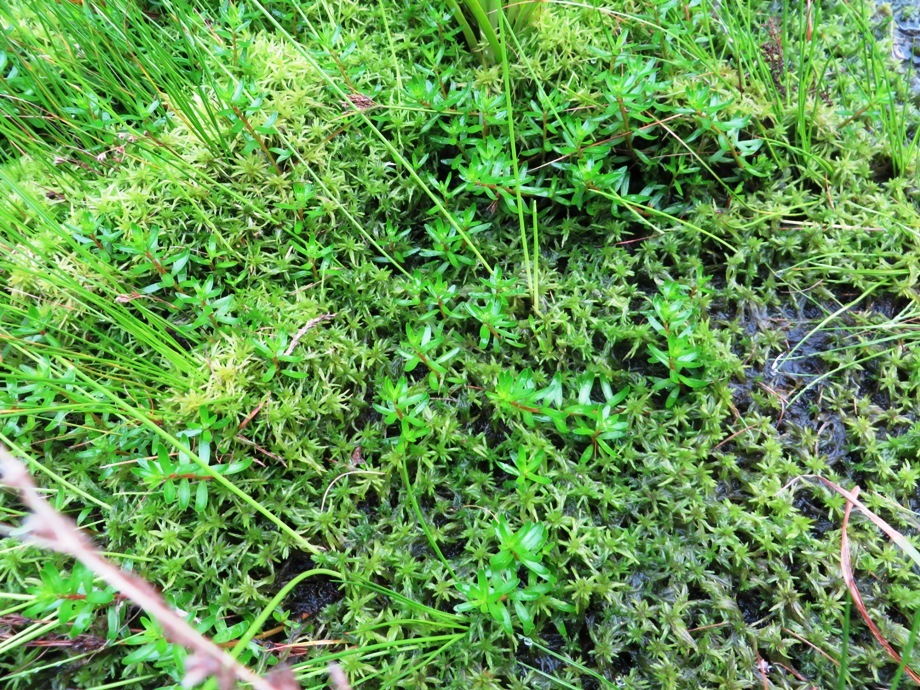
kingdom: Plantae
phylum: Tracheophyta
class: Magnoliopsida
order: Saxifragales
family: Haloragaceae
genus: Laurembergia
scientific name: Laurembergia repens
